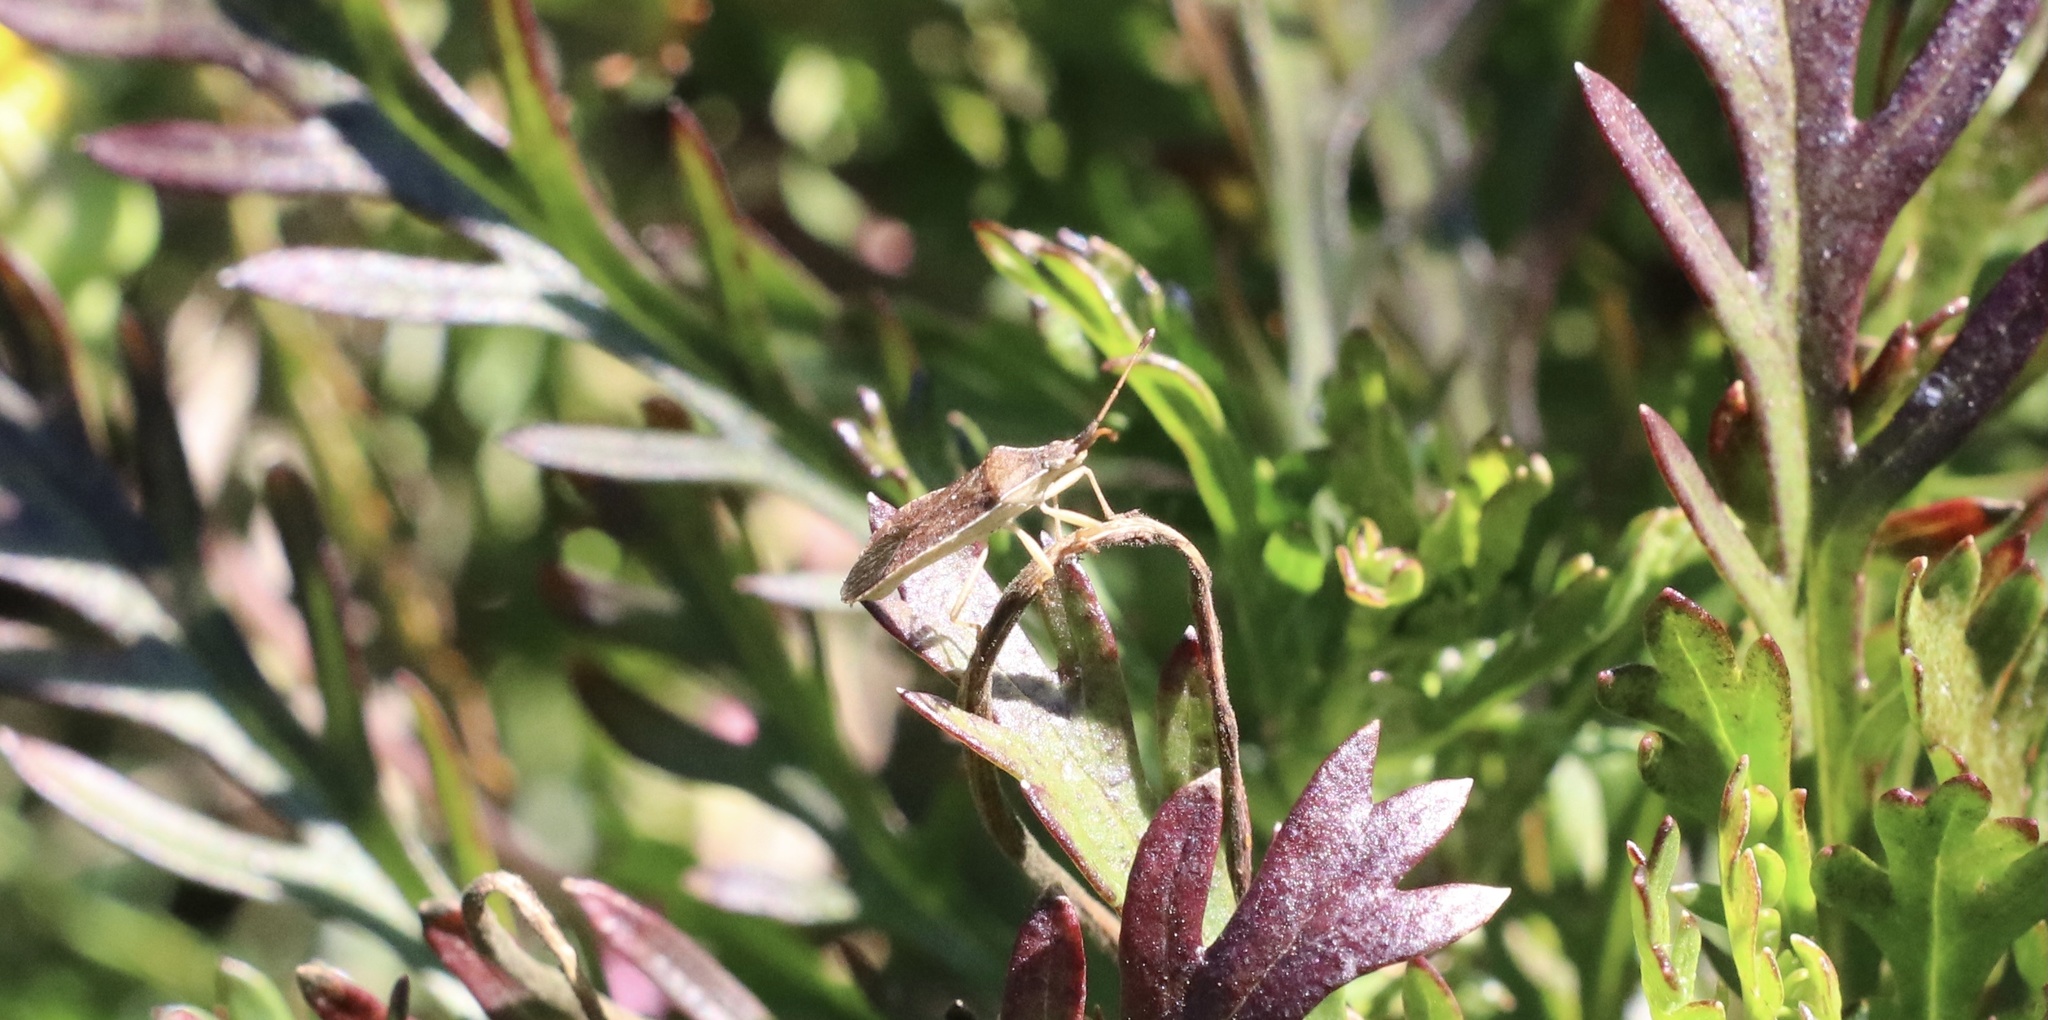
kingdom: Animalia
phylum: Arthropoda
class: Insecta
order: Hemiptera
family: Coreidae
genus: Althos
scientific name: Althos
